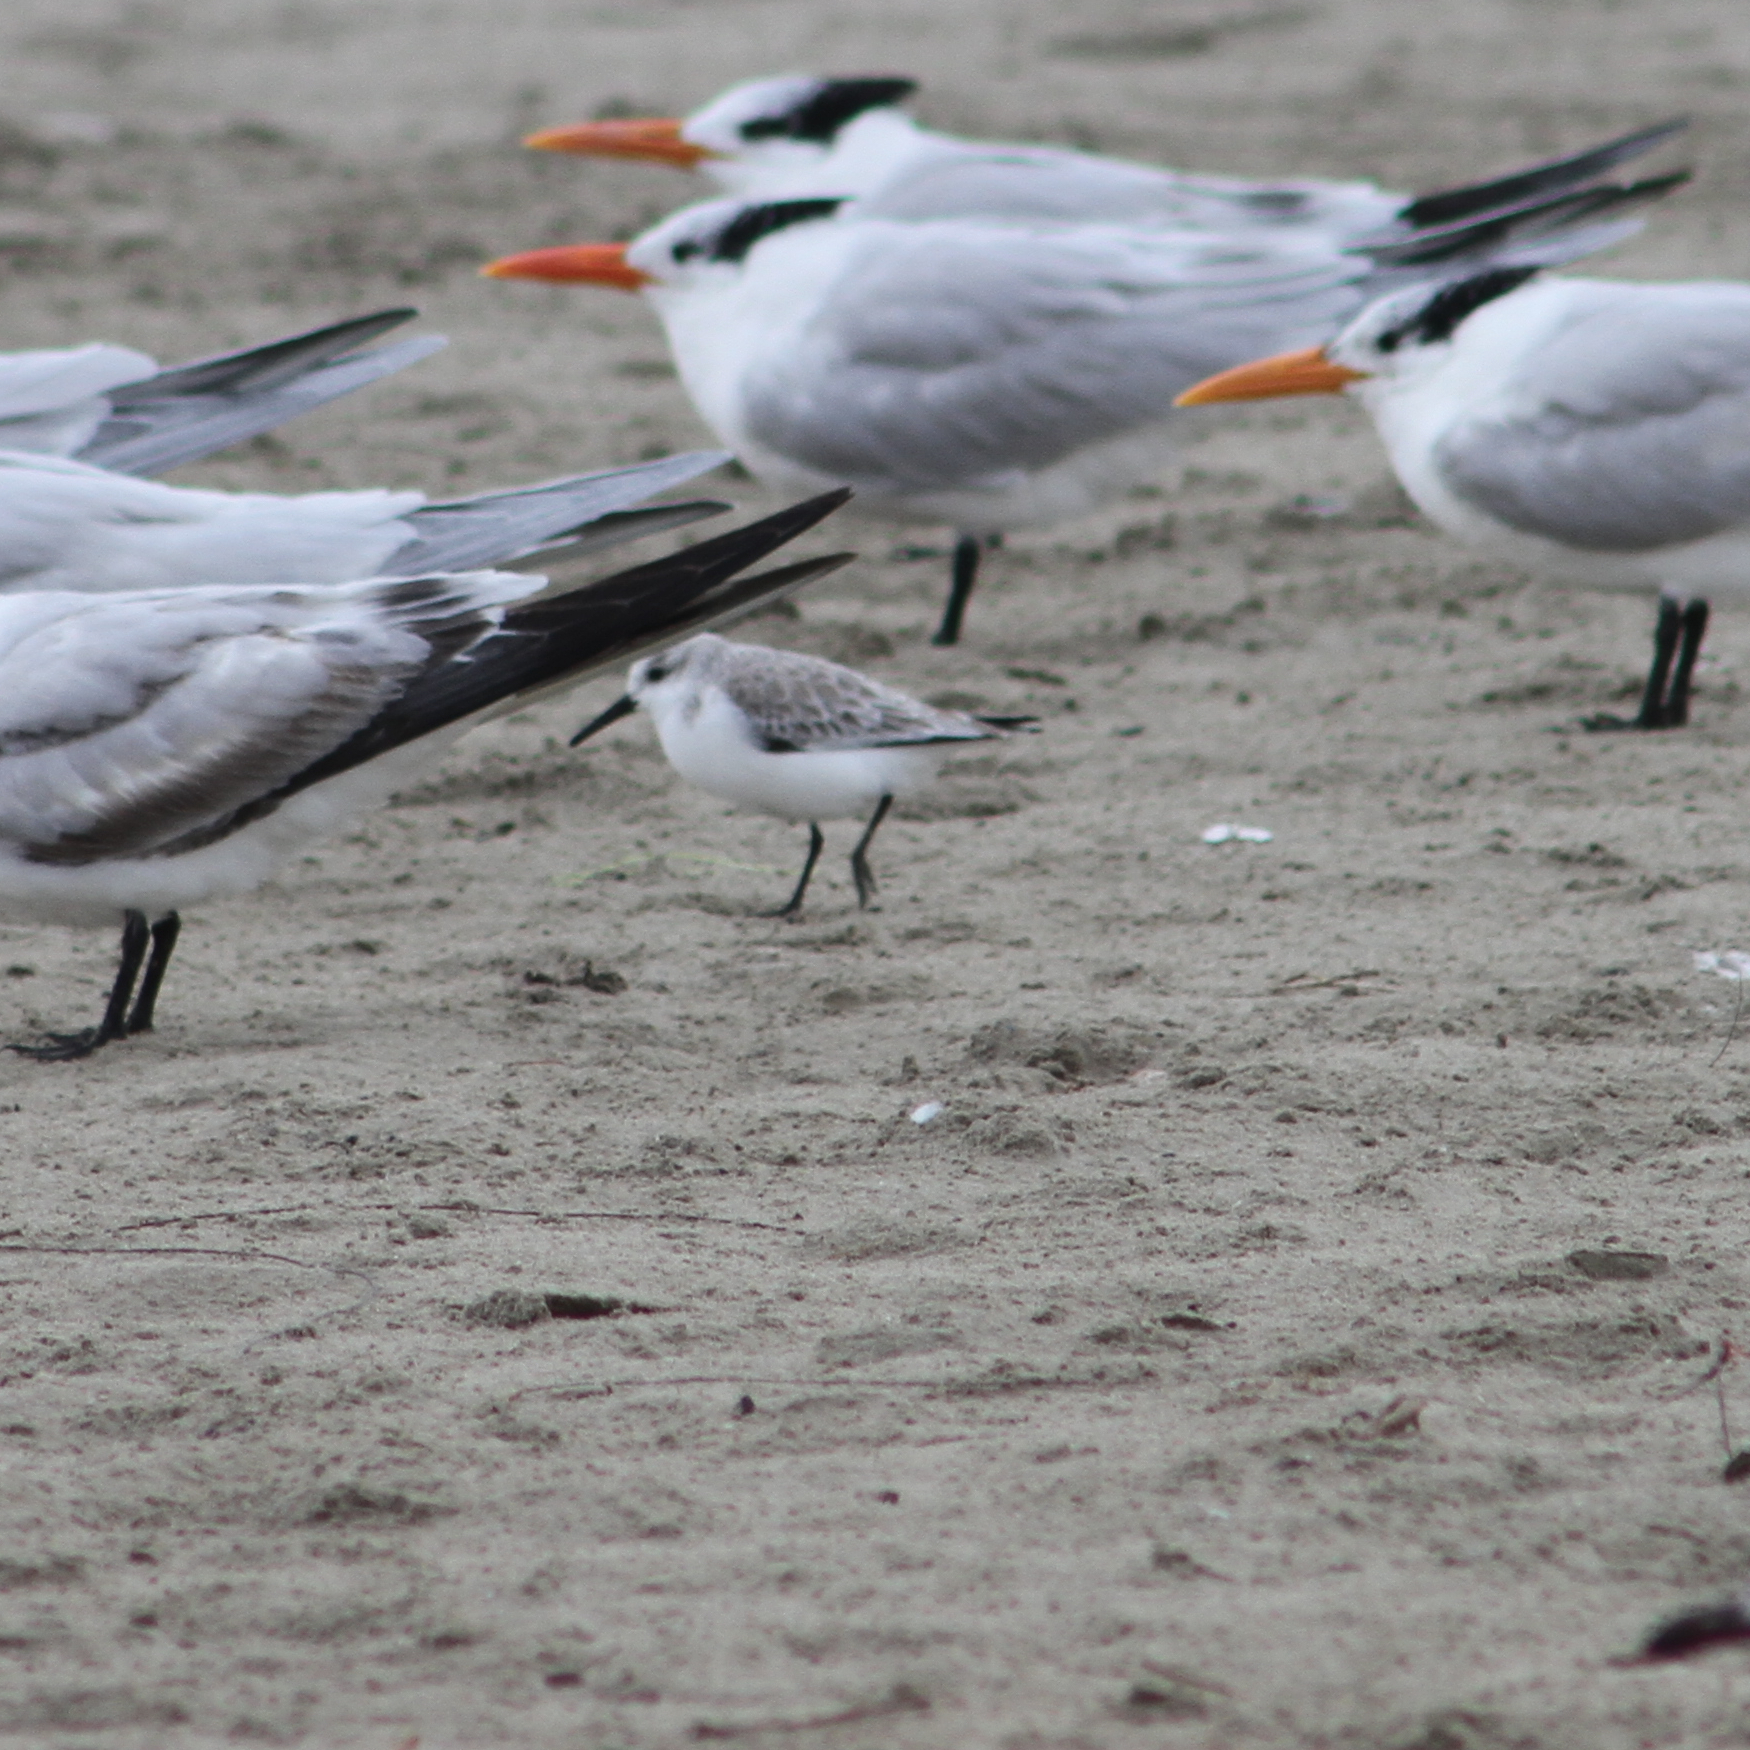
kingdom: Animalia
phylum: Chordata
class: Aves
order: Charadriiformes
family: Scolopacidae
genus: Calidris
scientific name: Calidris alba
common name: Sanderling
